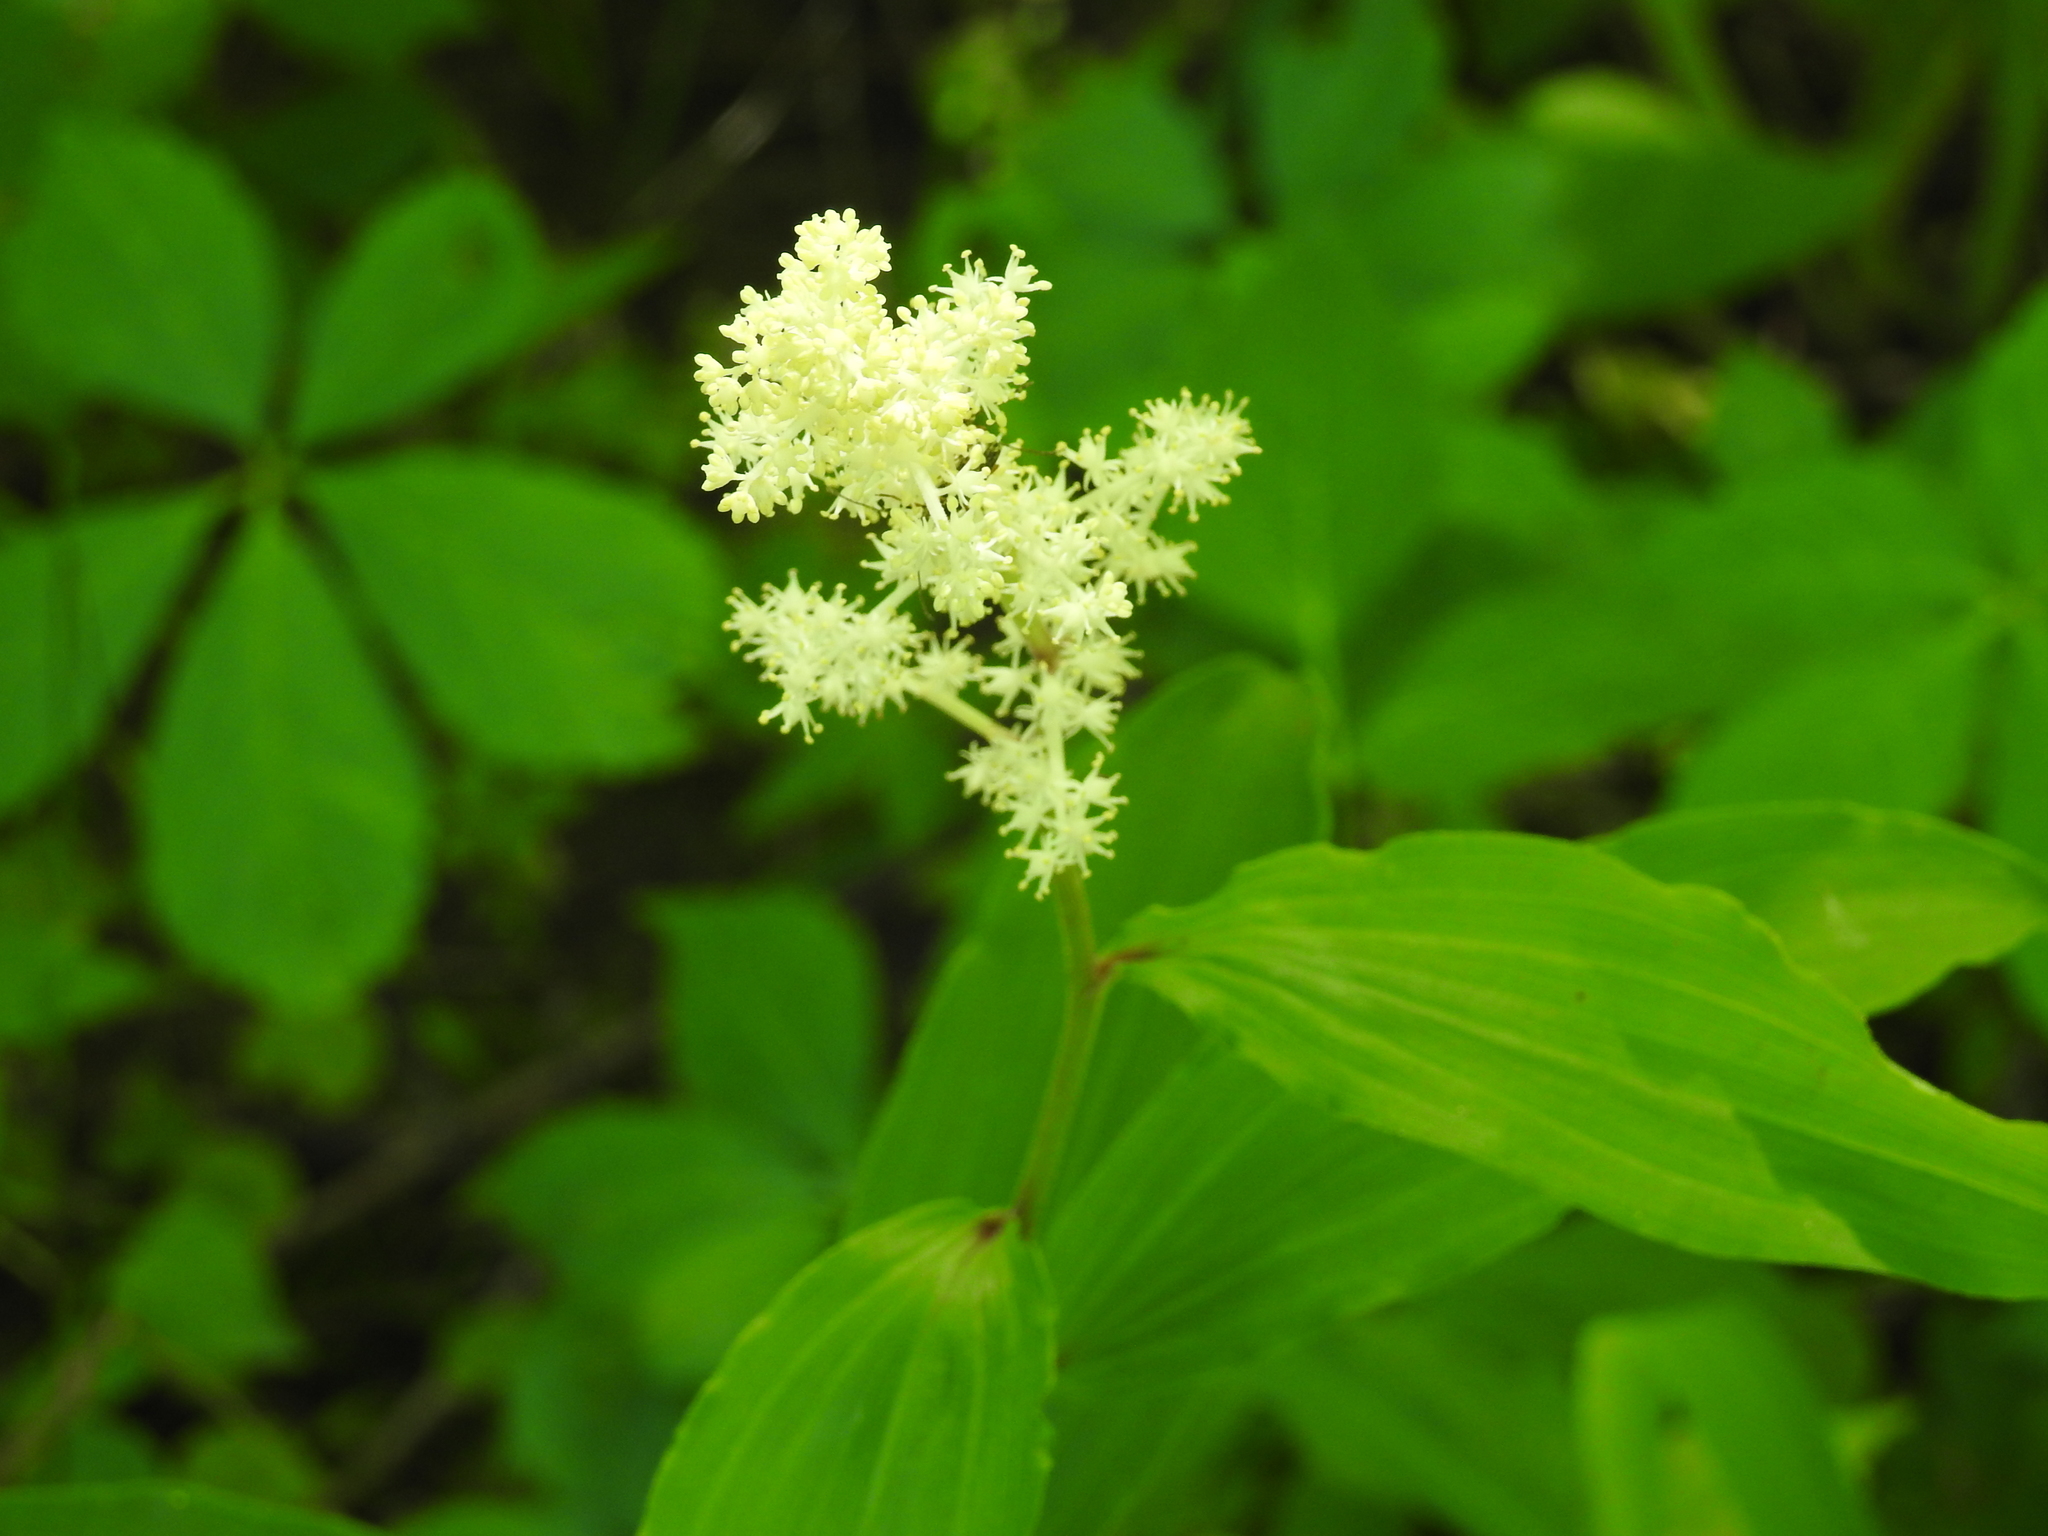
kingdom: Plantae
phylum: Tracheophyta
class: Liliopsida
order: Asparagales
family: Asparagaceae
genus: Maianthemum
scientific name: Maianthemum racemosum
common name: False spikenard
